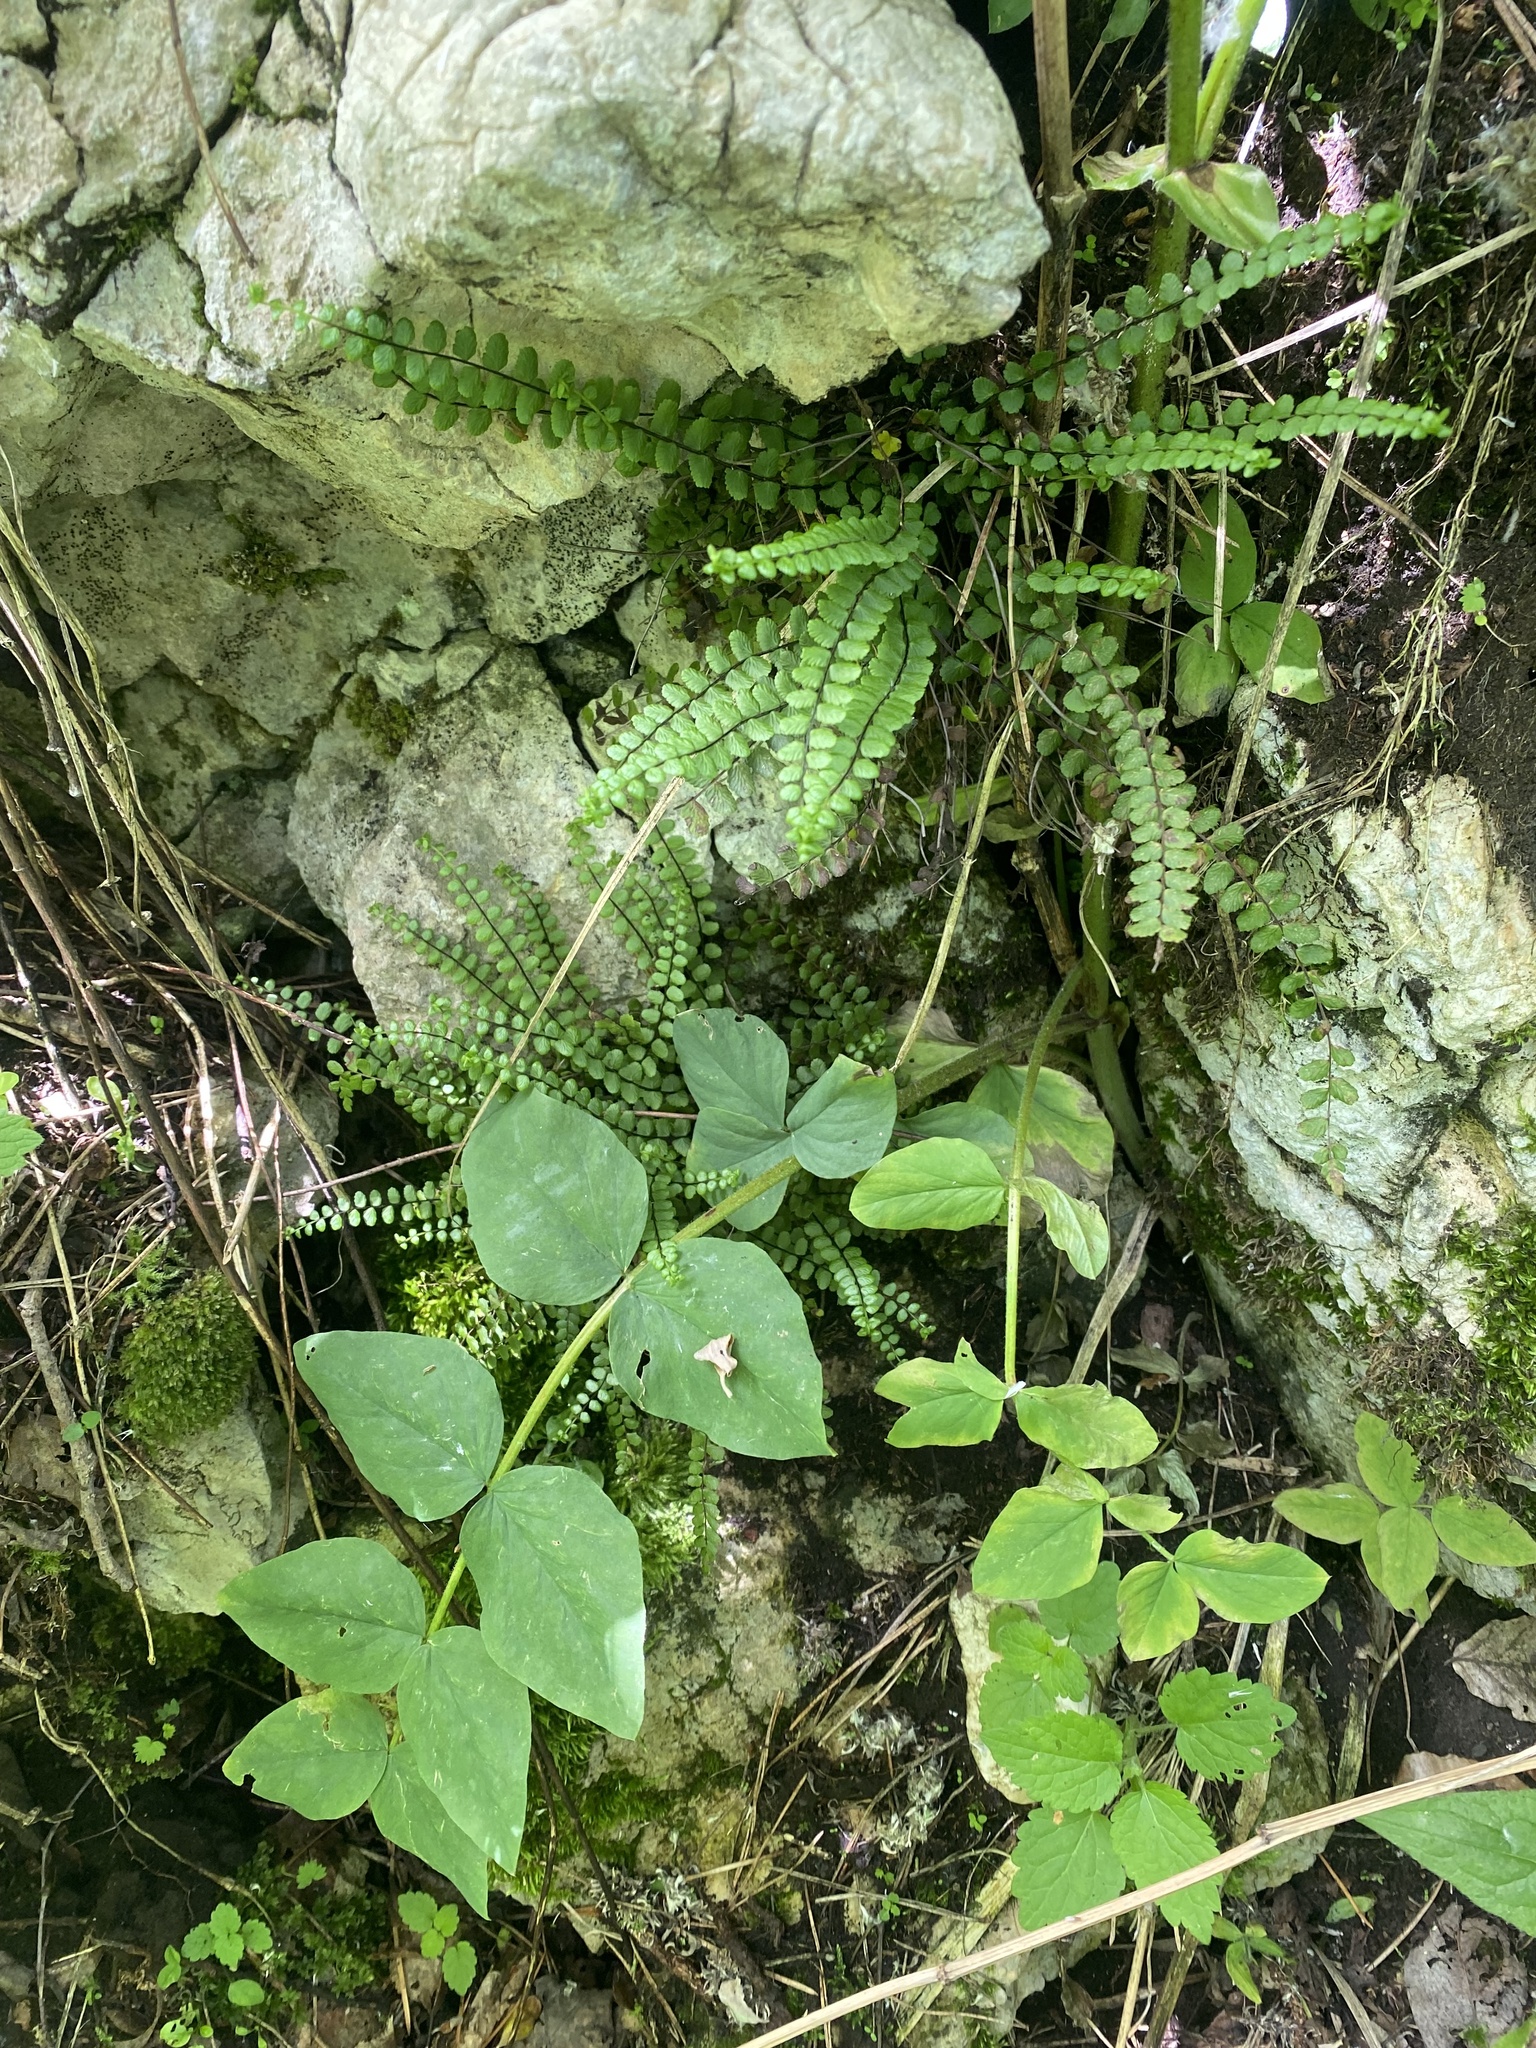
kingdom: Plantae
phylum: Tracheophyta
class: Polypodiopsida
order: Polypodiales
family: Aspleniaceae
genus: Asplenium
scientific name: Asplenium trichomanes
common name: Maidenhair spleenwort
